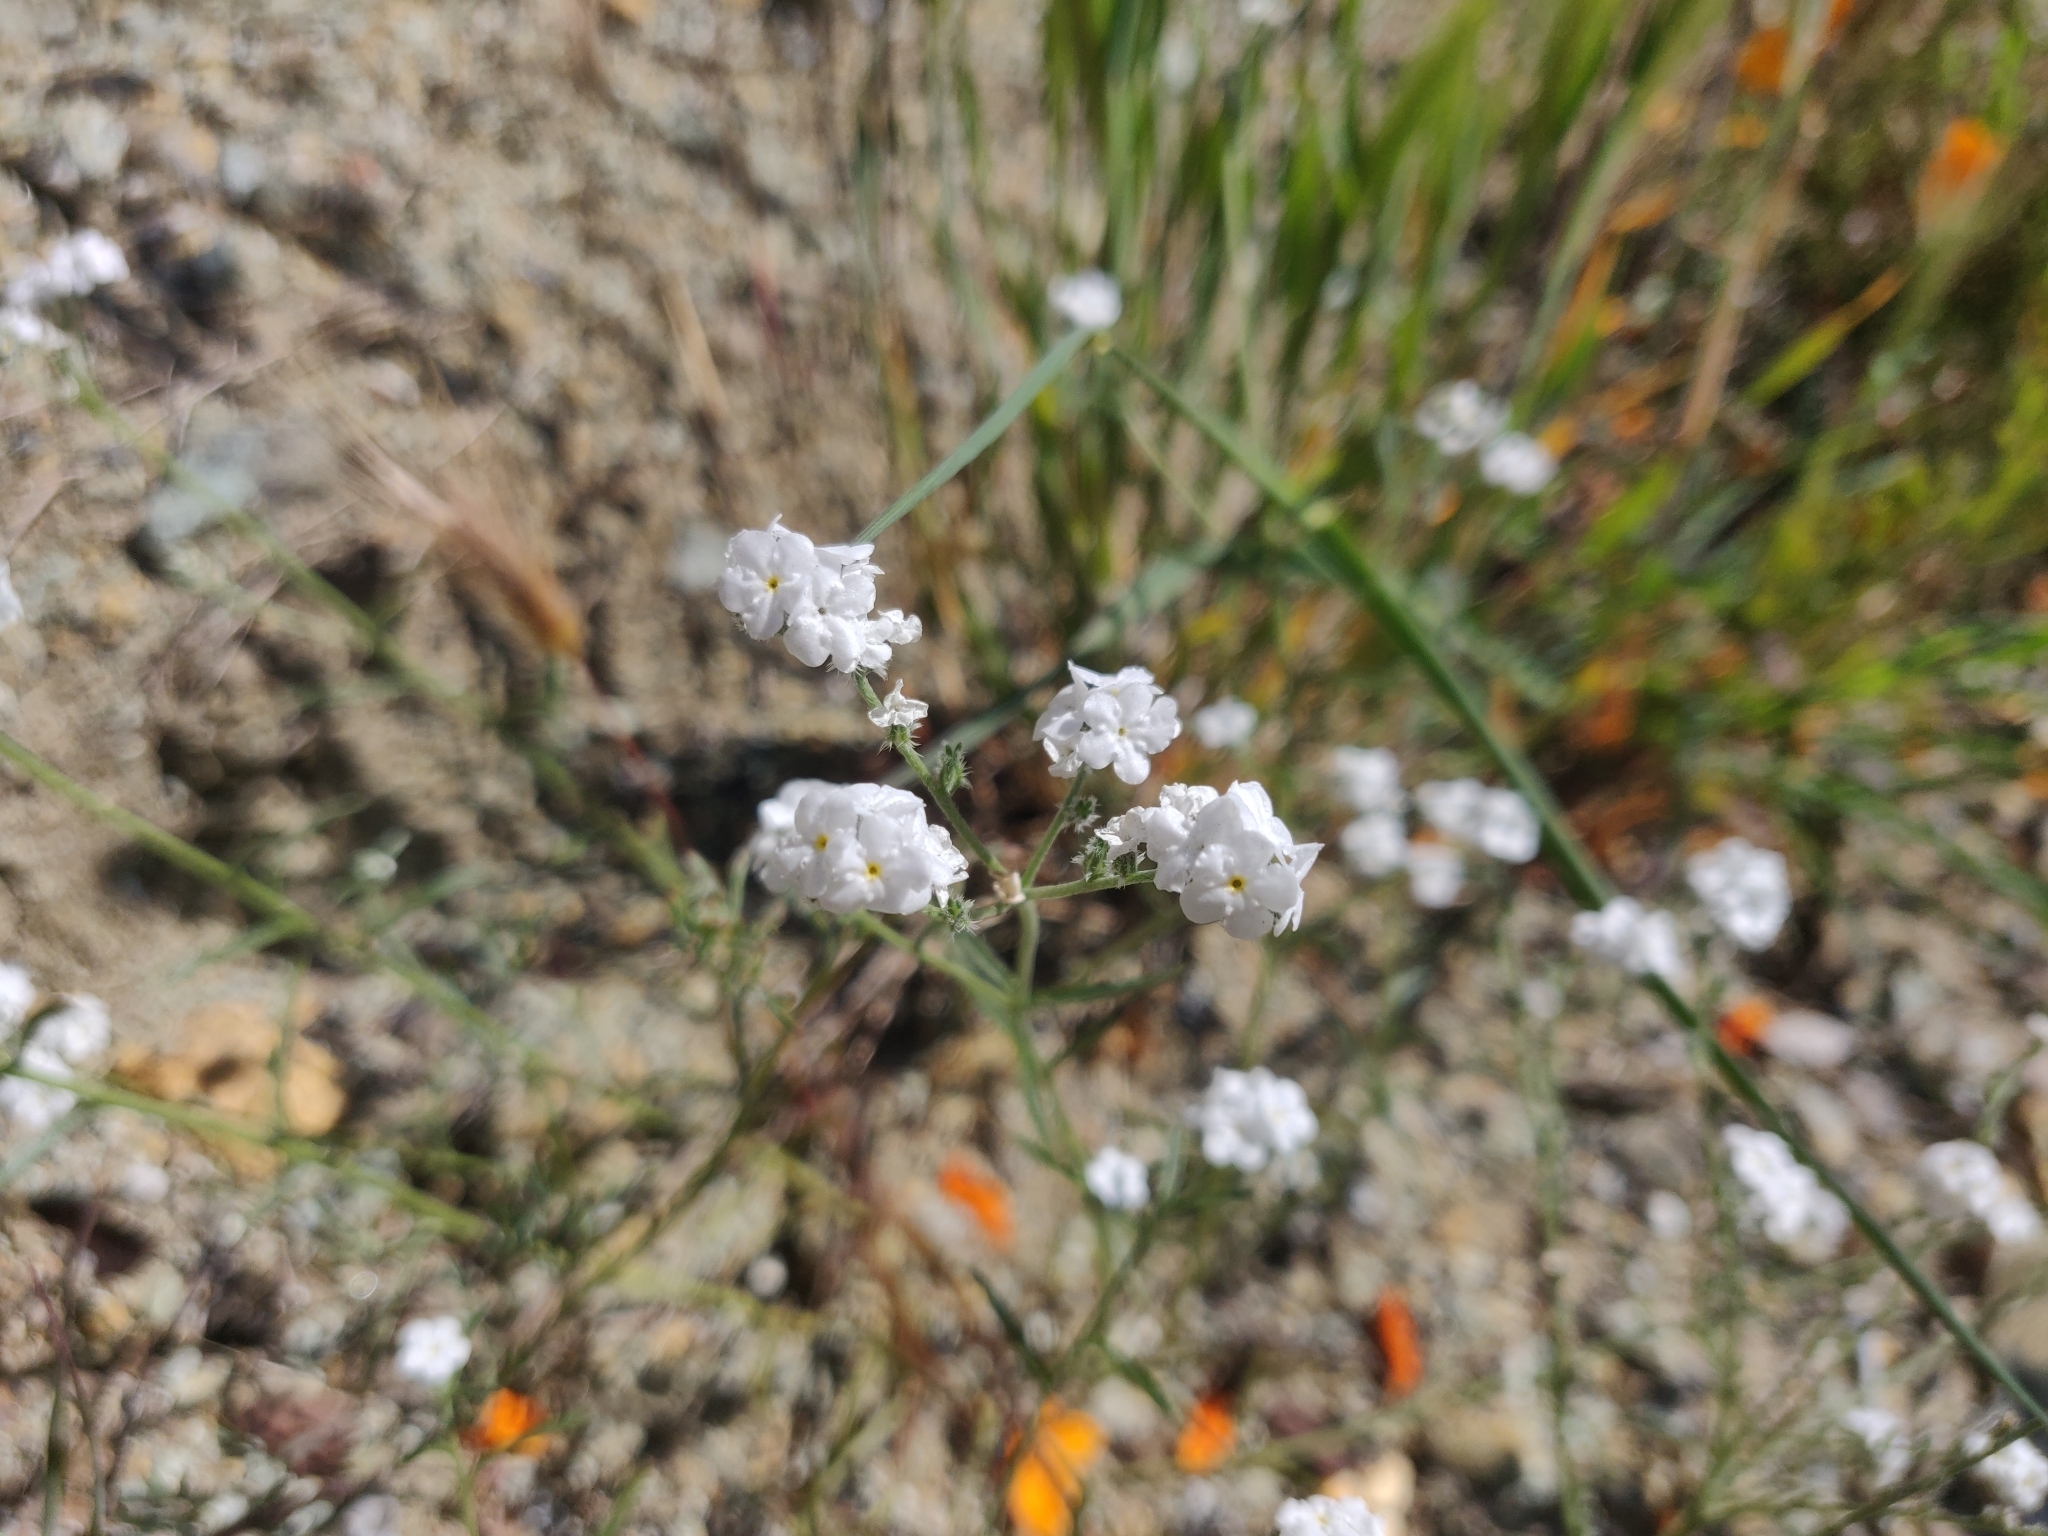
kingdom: Plantae
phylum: Tracheophyta
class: Magnoliopsida
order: Boraginales
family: Boraginaceae
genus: Cryptantha
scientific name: Cryptantha flaccida
